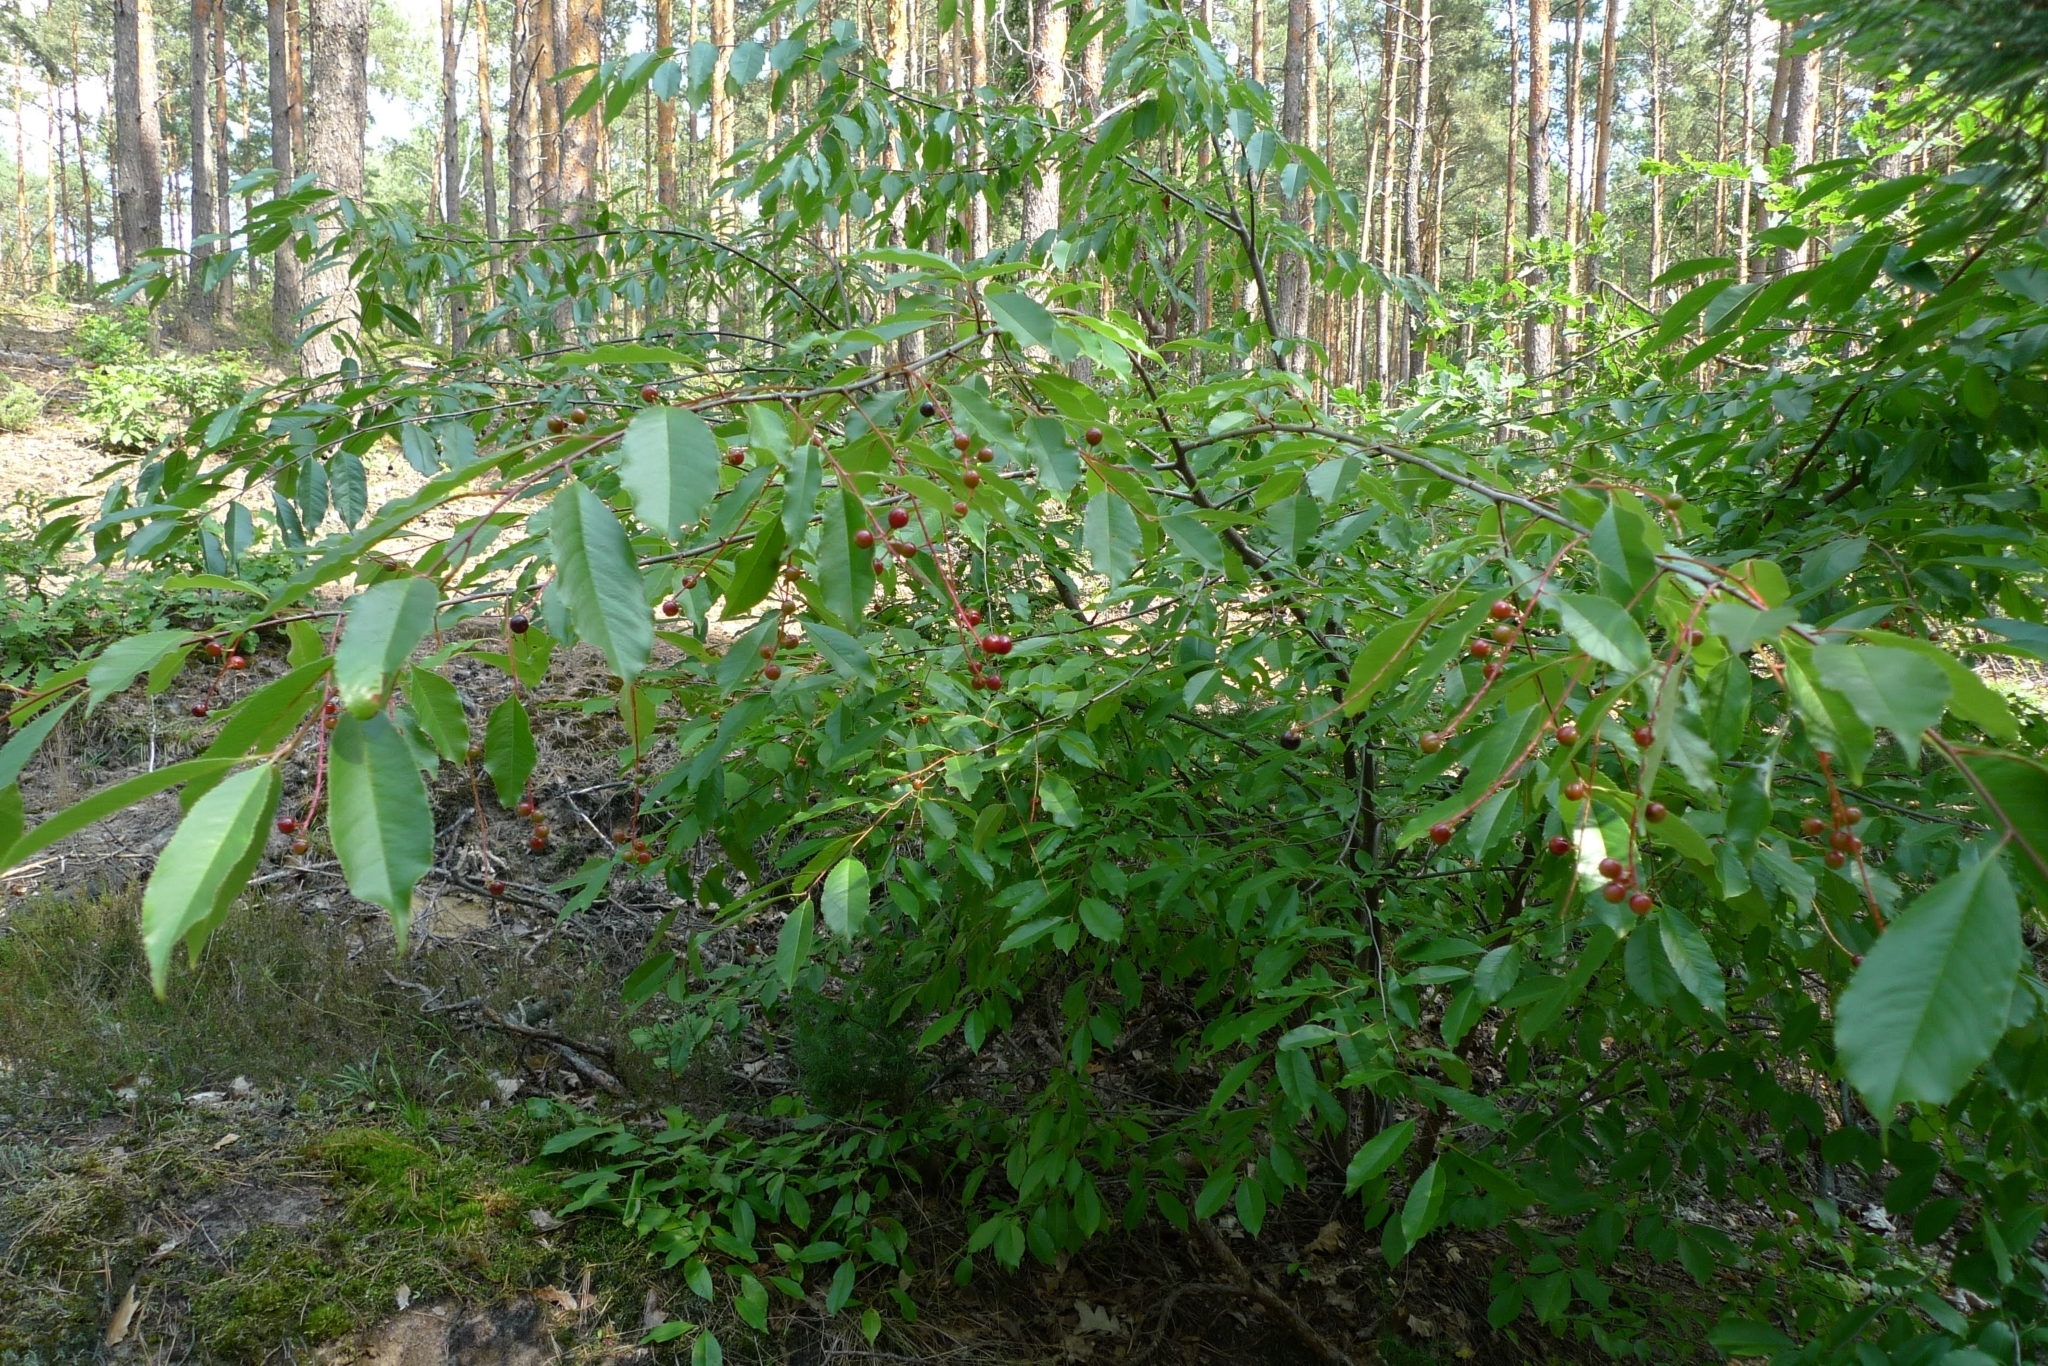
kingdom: Plantae
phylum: Tracheophyta
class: Magnoliopsida
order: Rosales
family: Rosaceae
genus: Prunus
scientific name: Prunus serotina
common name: Black cherry
